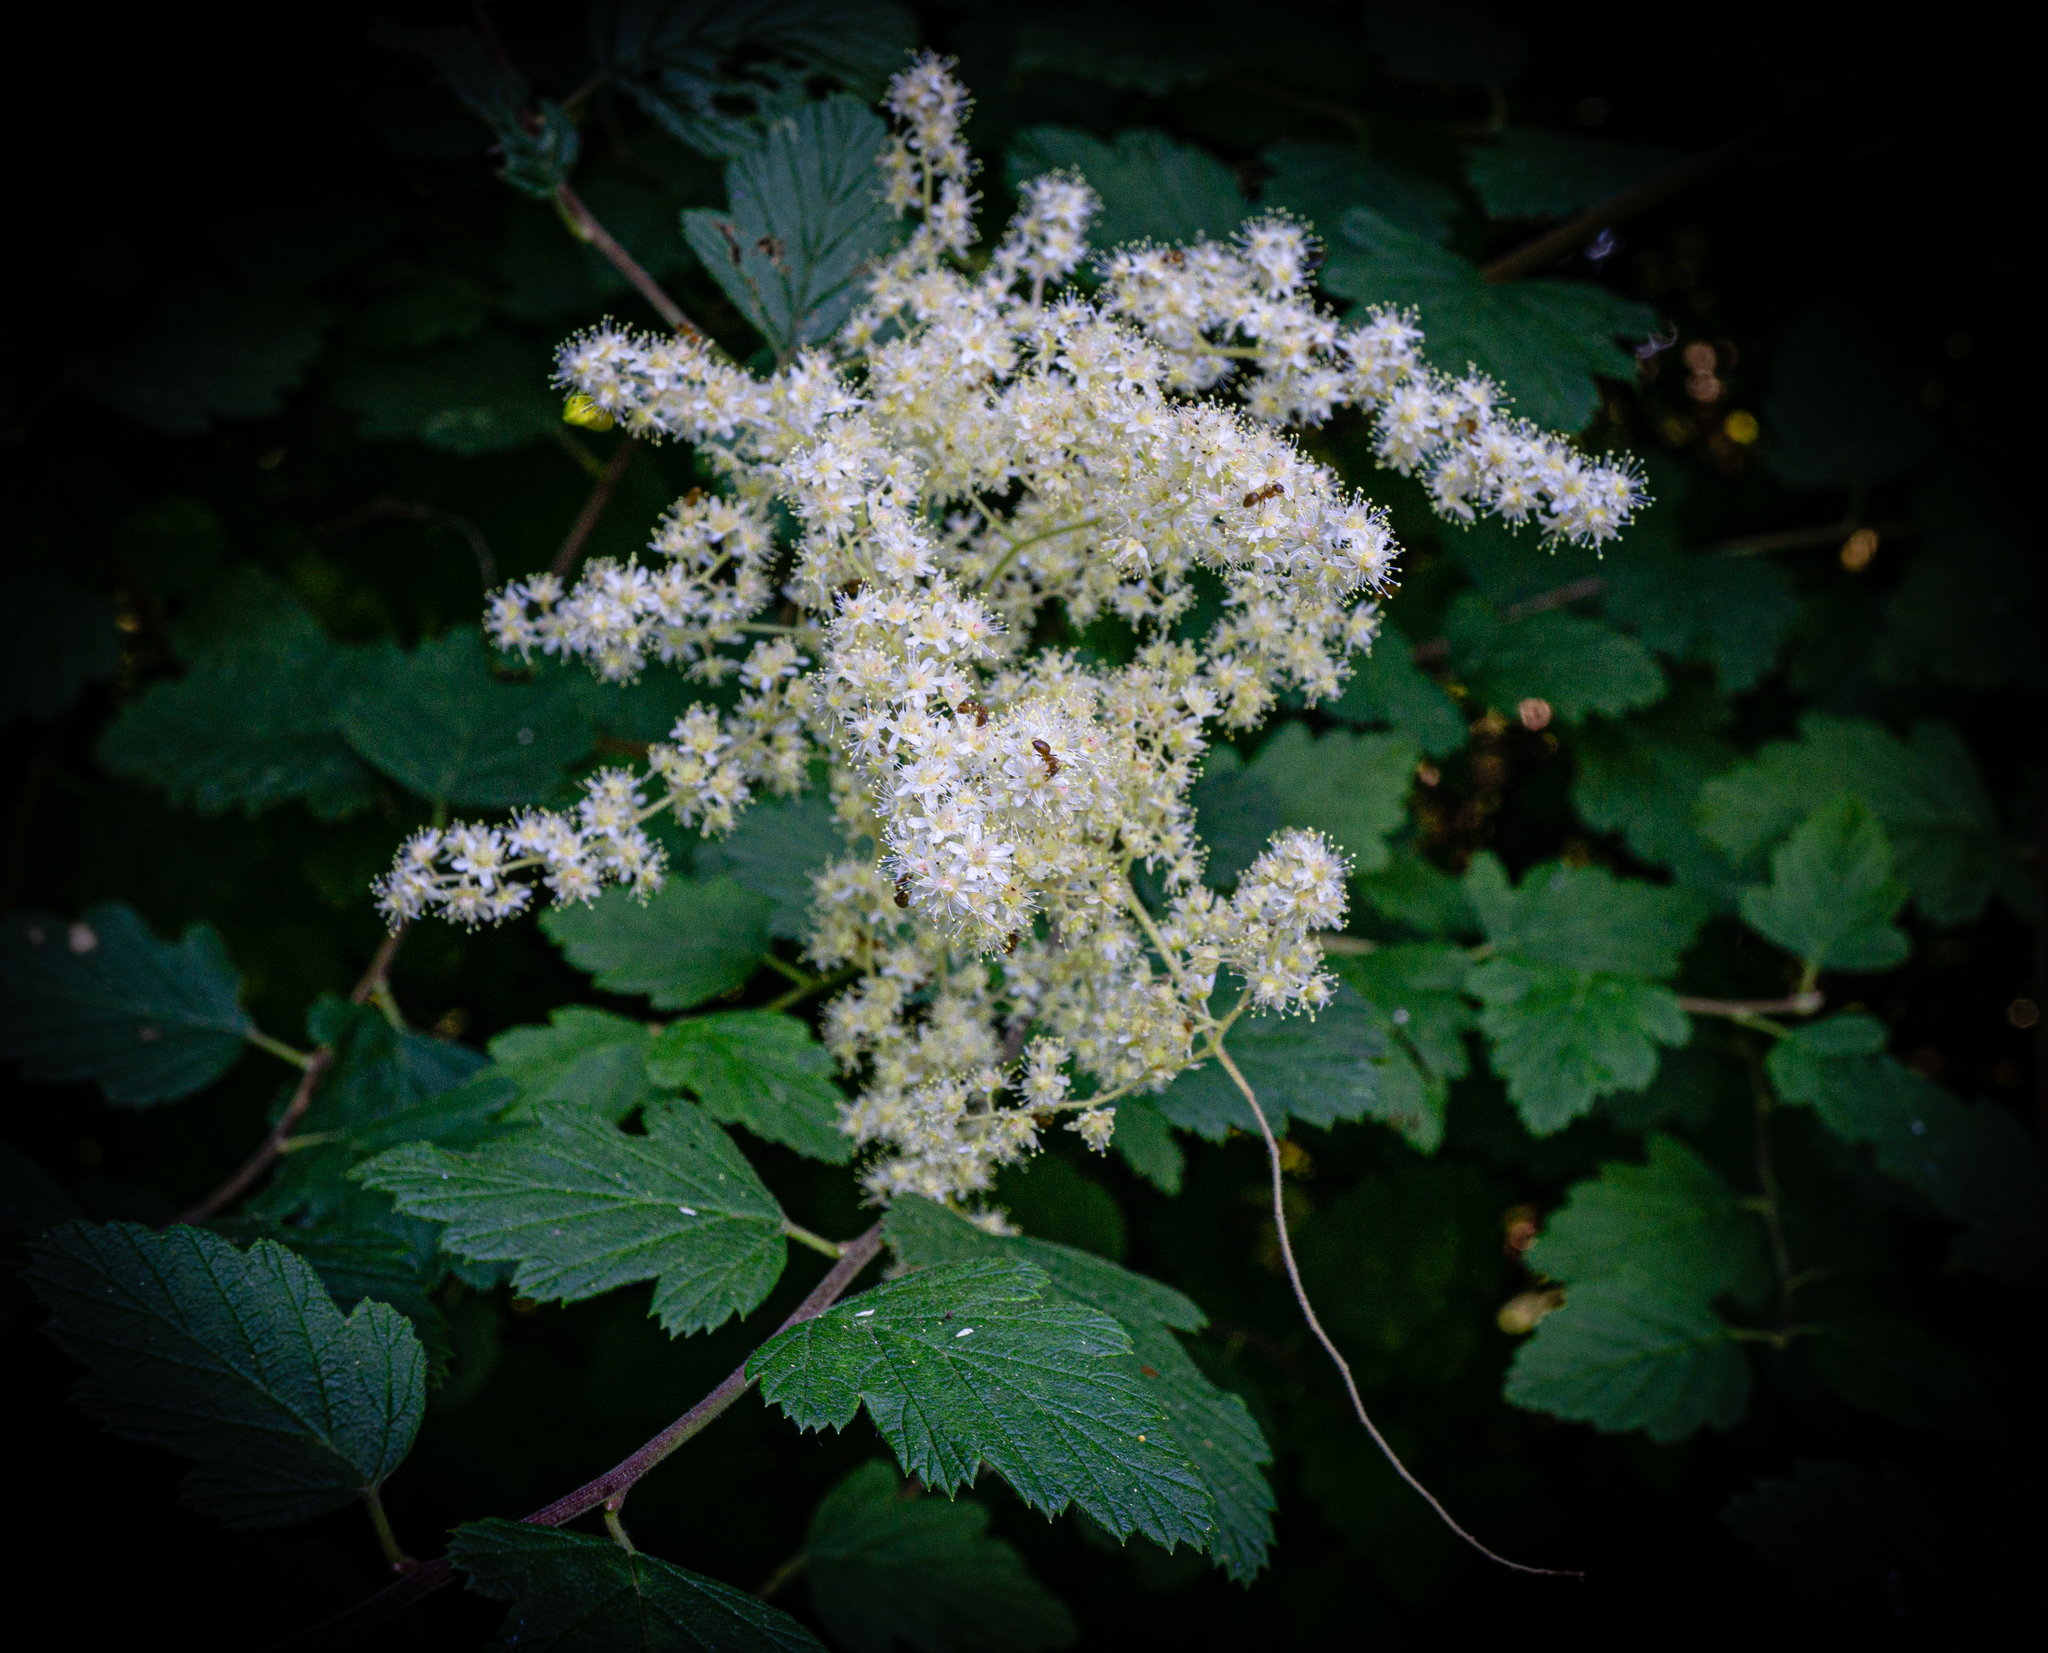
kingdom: Plantae
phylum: Tracheophyta
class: Magnoliopsida
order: Rosales
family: Rosaceae
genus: Holodiscus
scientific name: Holodiscus discolor
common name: Oceanspray
